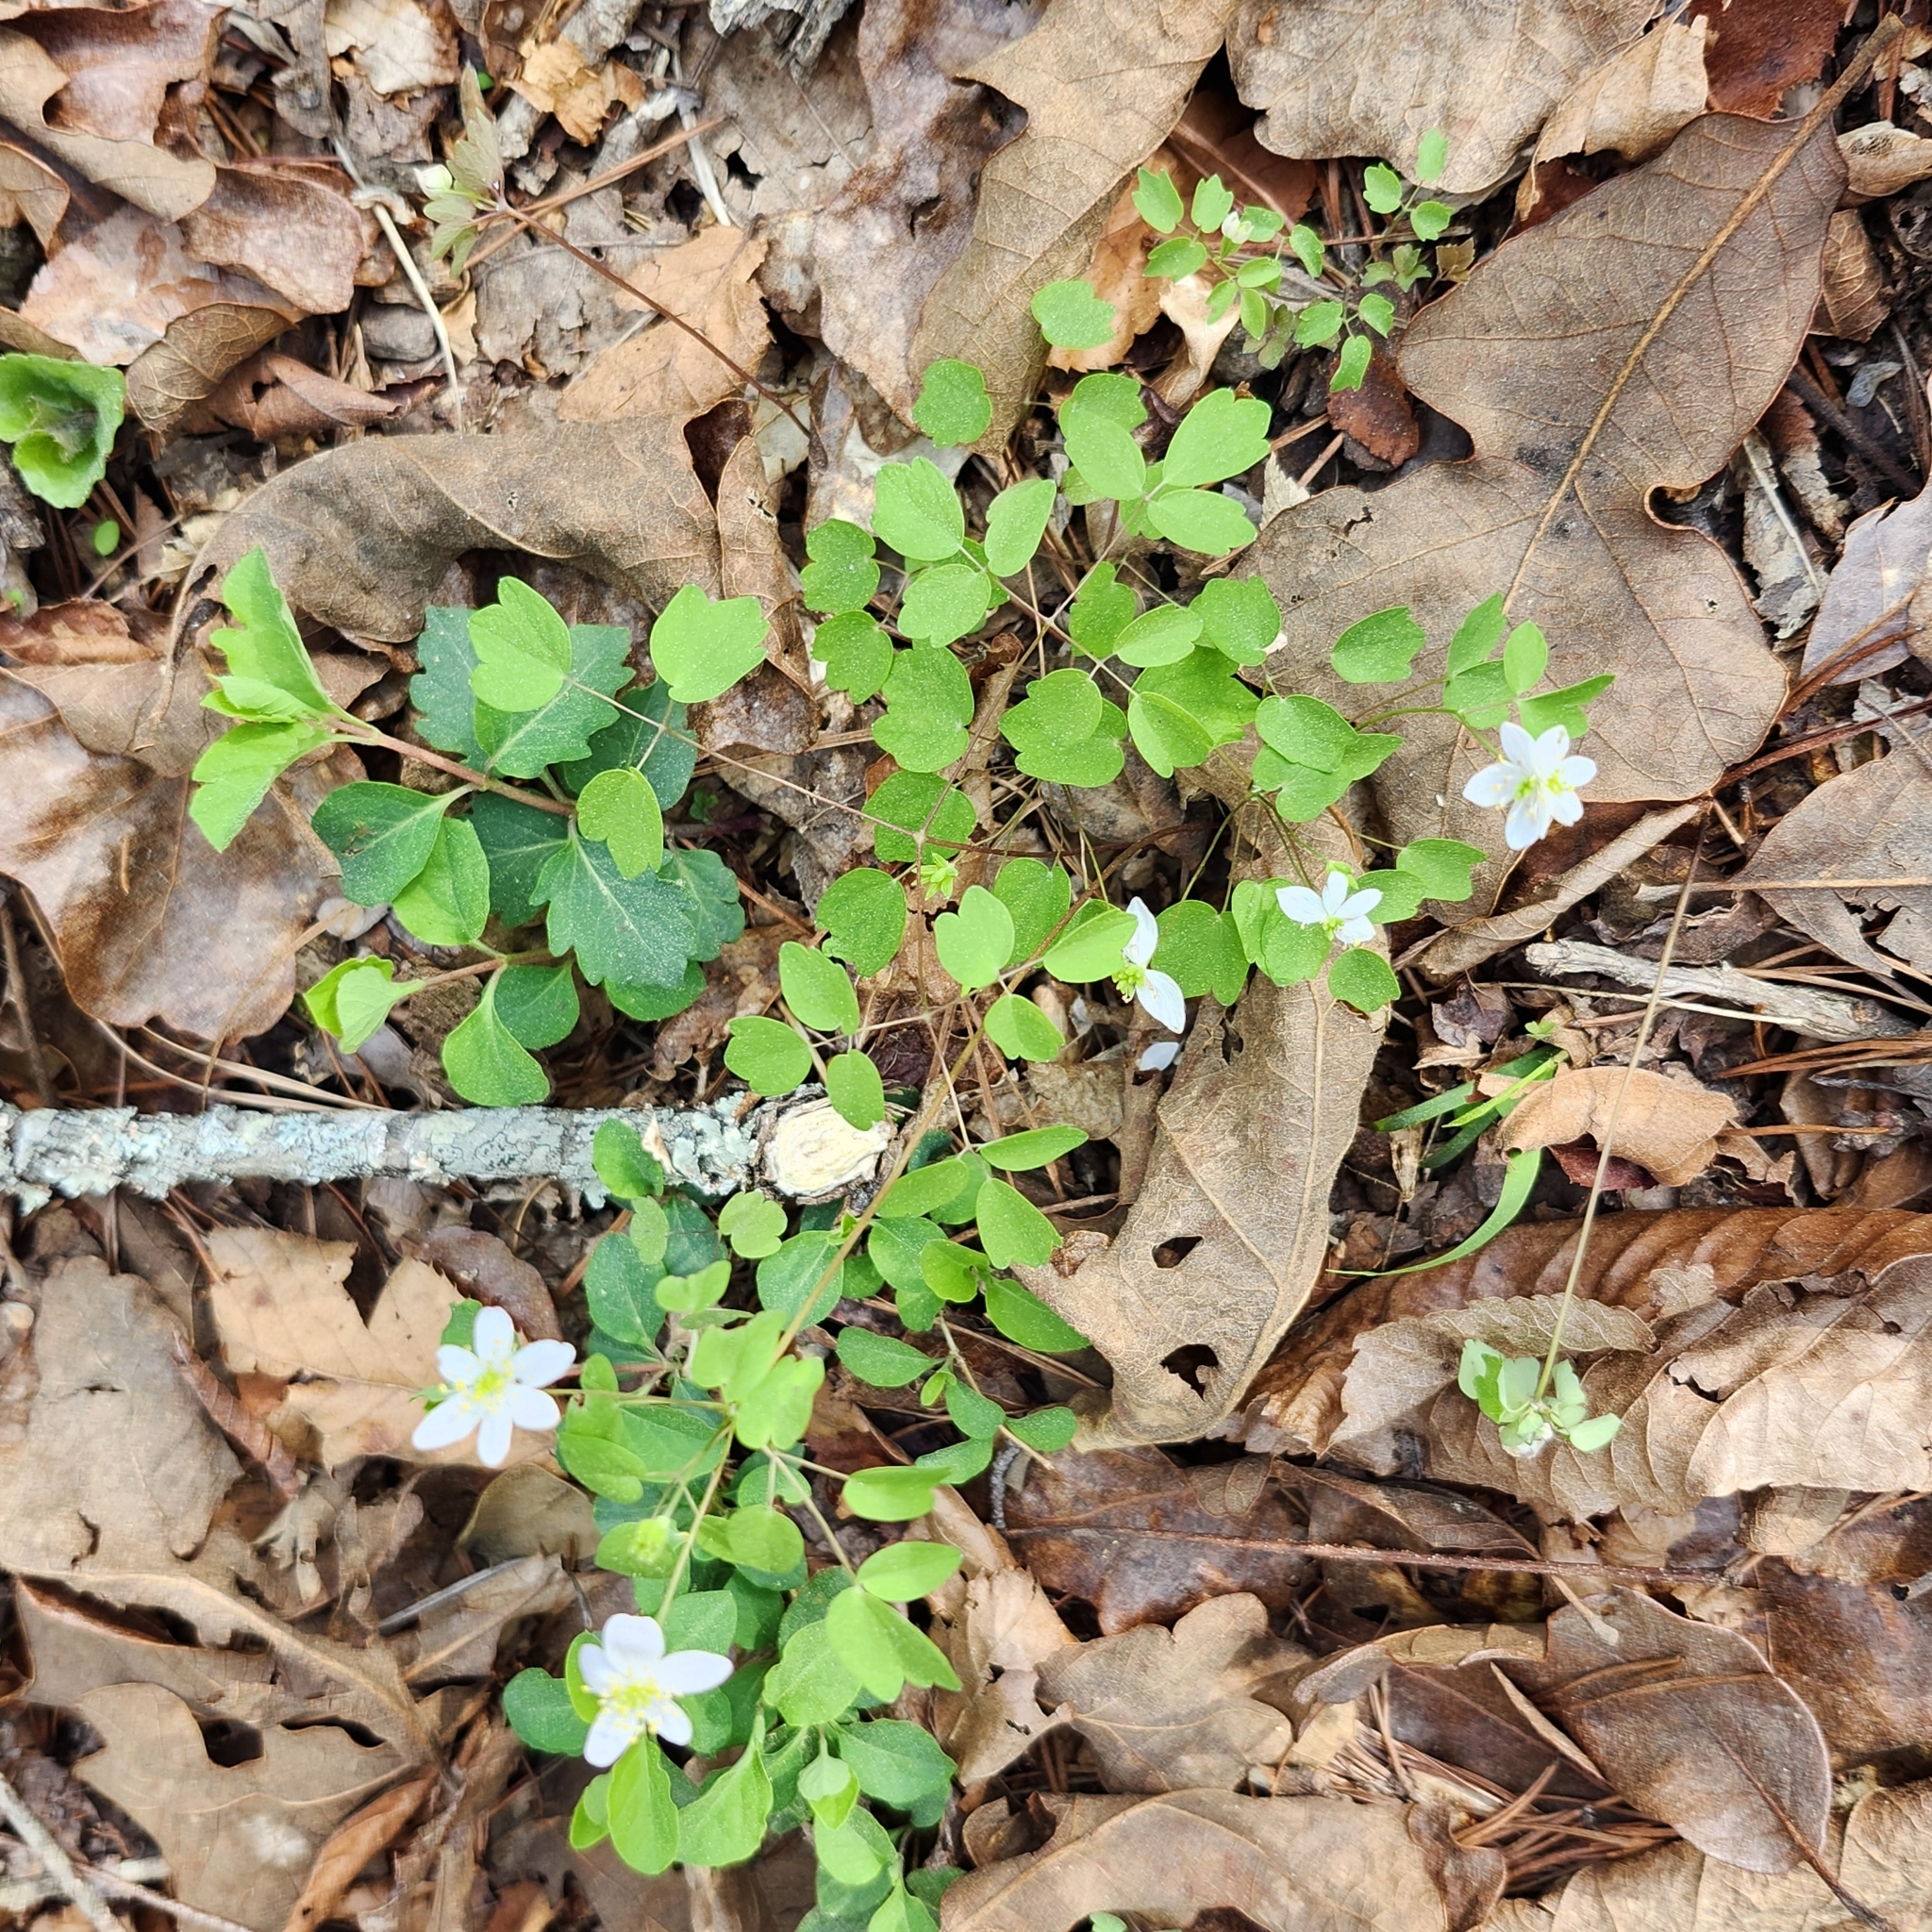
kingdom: Plantae
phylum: Tracheophyta
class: Magnoliopsida
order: Ranunculales
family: Ranunculaceae
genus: Thalictrum
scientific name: Thalictrum thalictroides
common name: Rue-anemone
